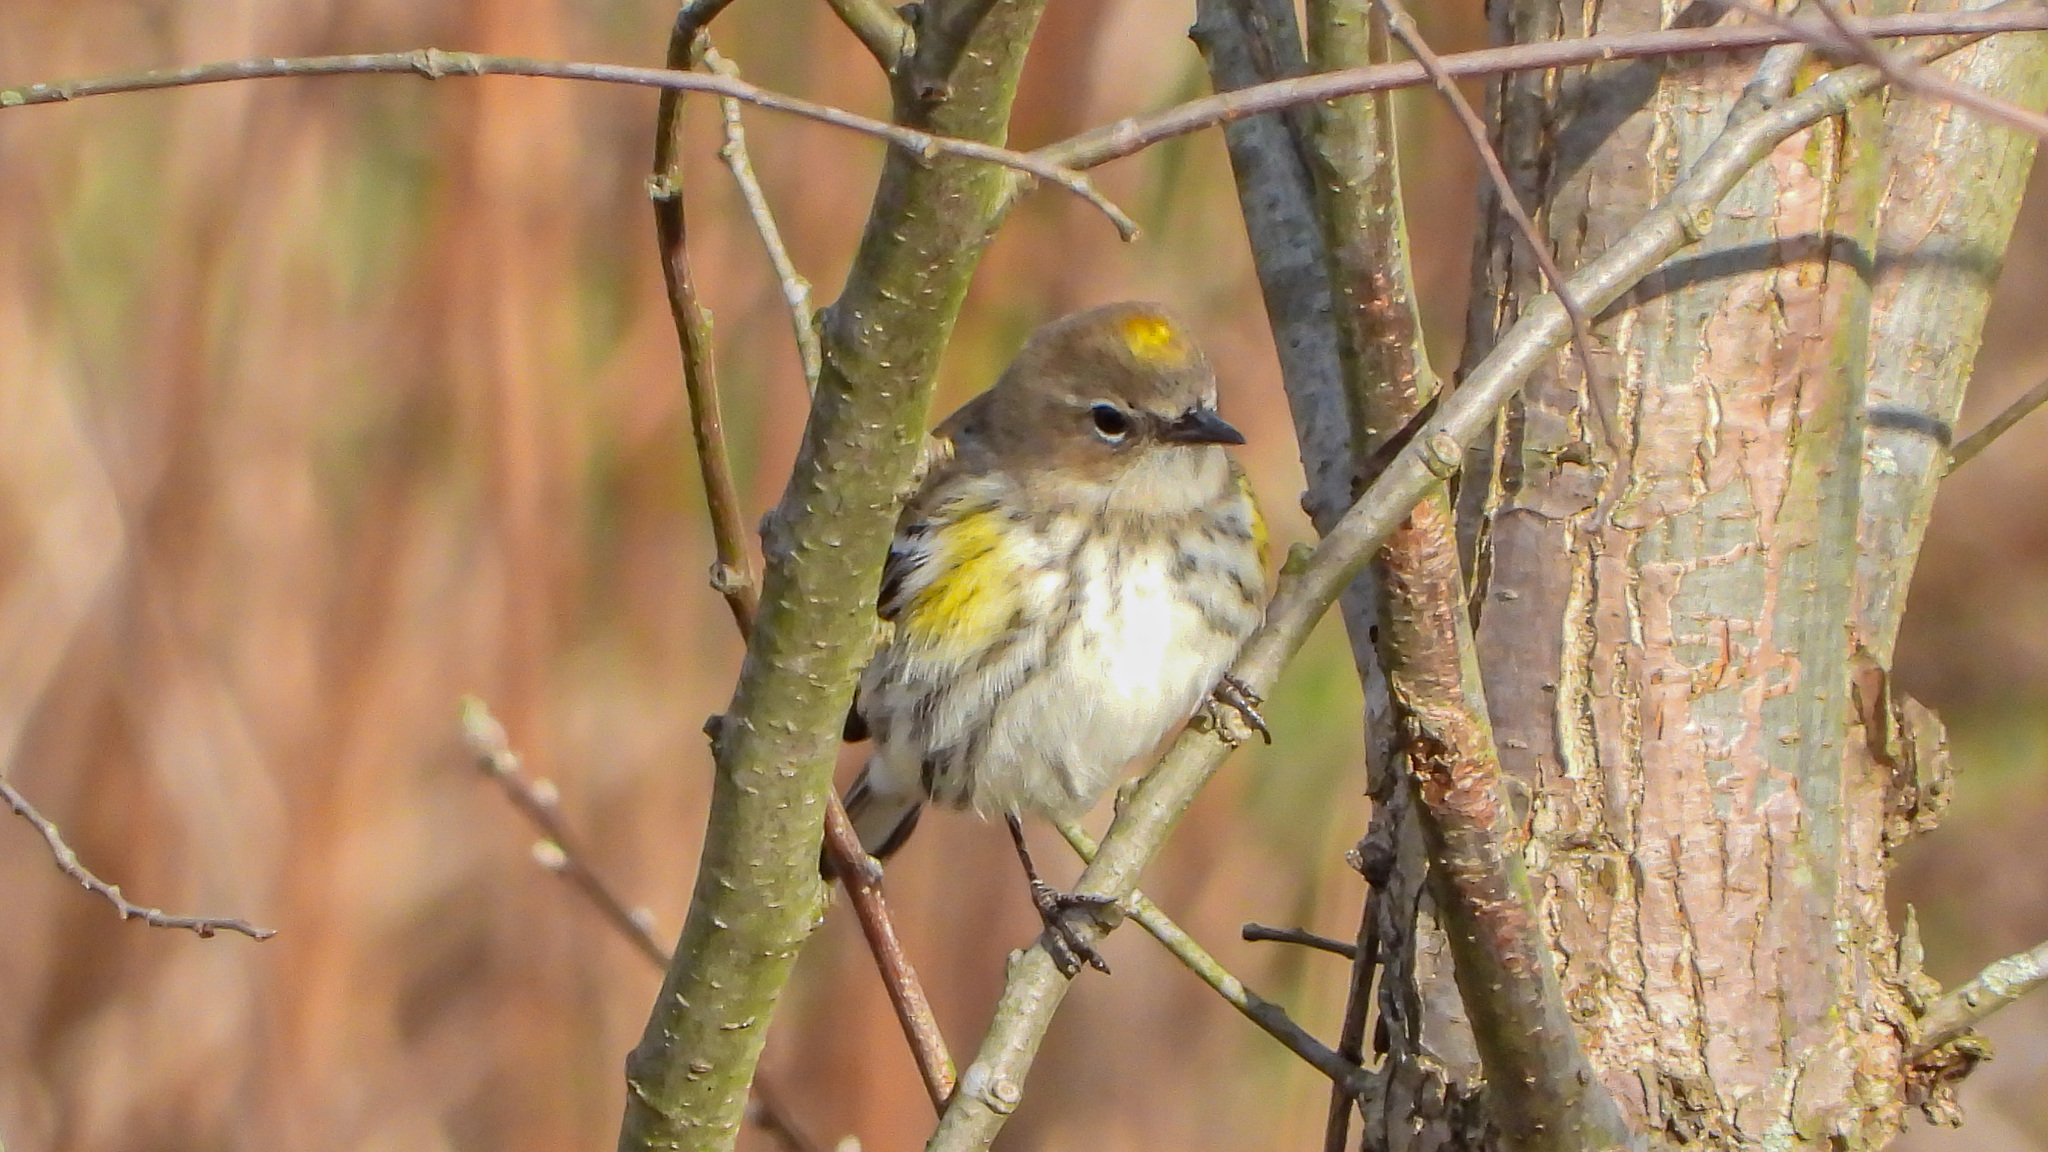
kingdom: Animalia
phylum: Chordata
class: Aves
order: Passeriformes
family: Parulidae
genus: Setophaga
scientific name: Setophaga coronata
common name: Myrtle warbler
